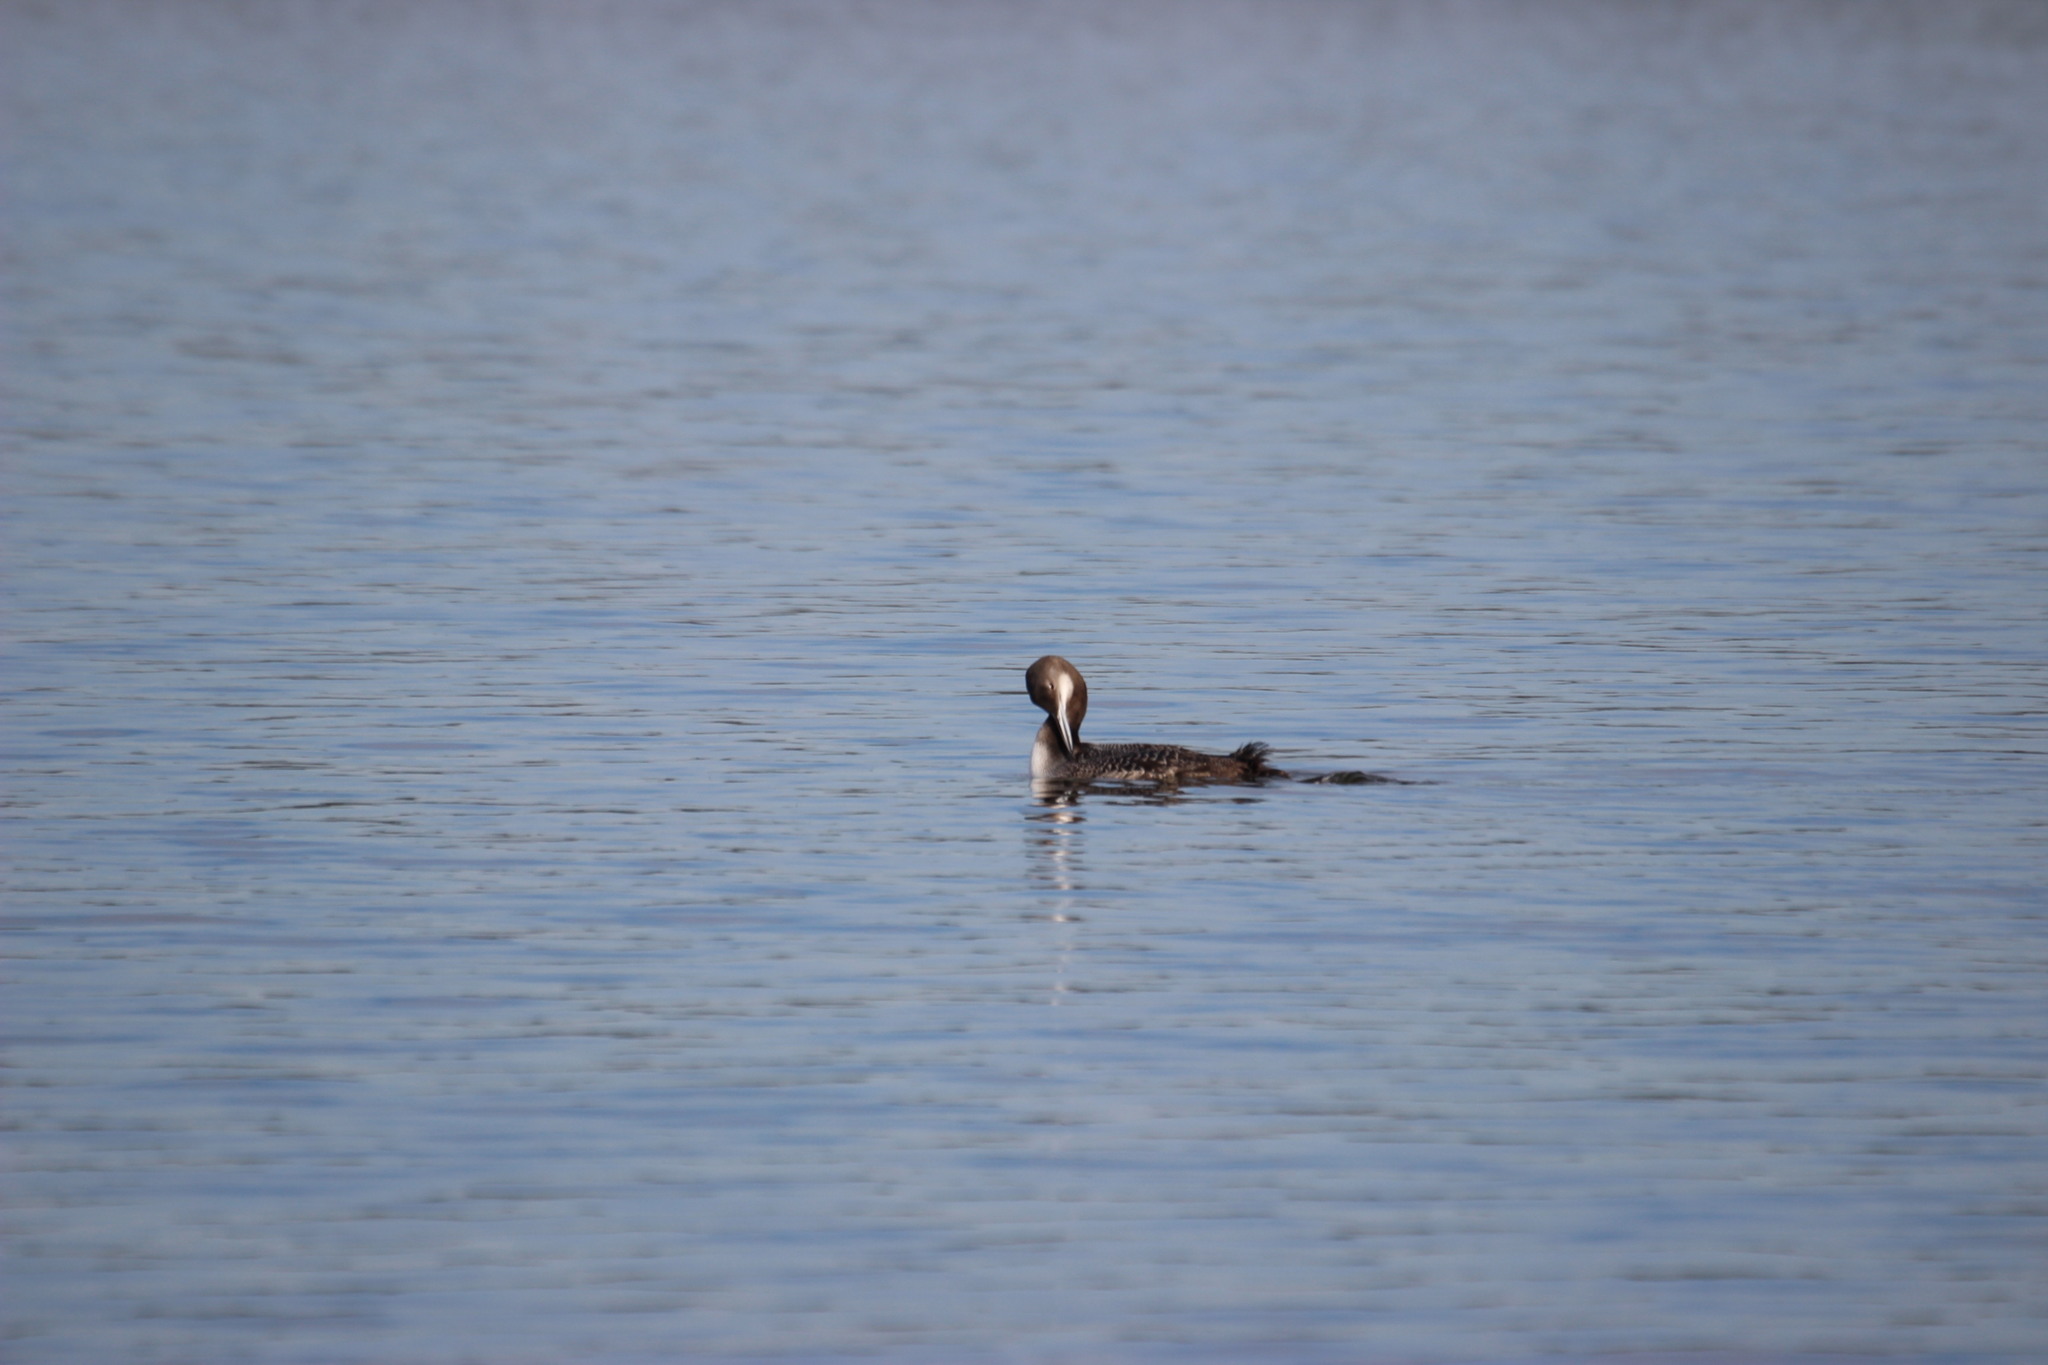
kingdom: Animalia
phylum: Chordata
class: Aves
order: Gaviiformes
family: Gaviidae
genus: Gavia
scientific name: Gavia immer
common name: Common loon
